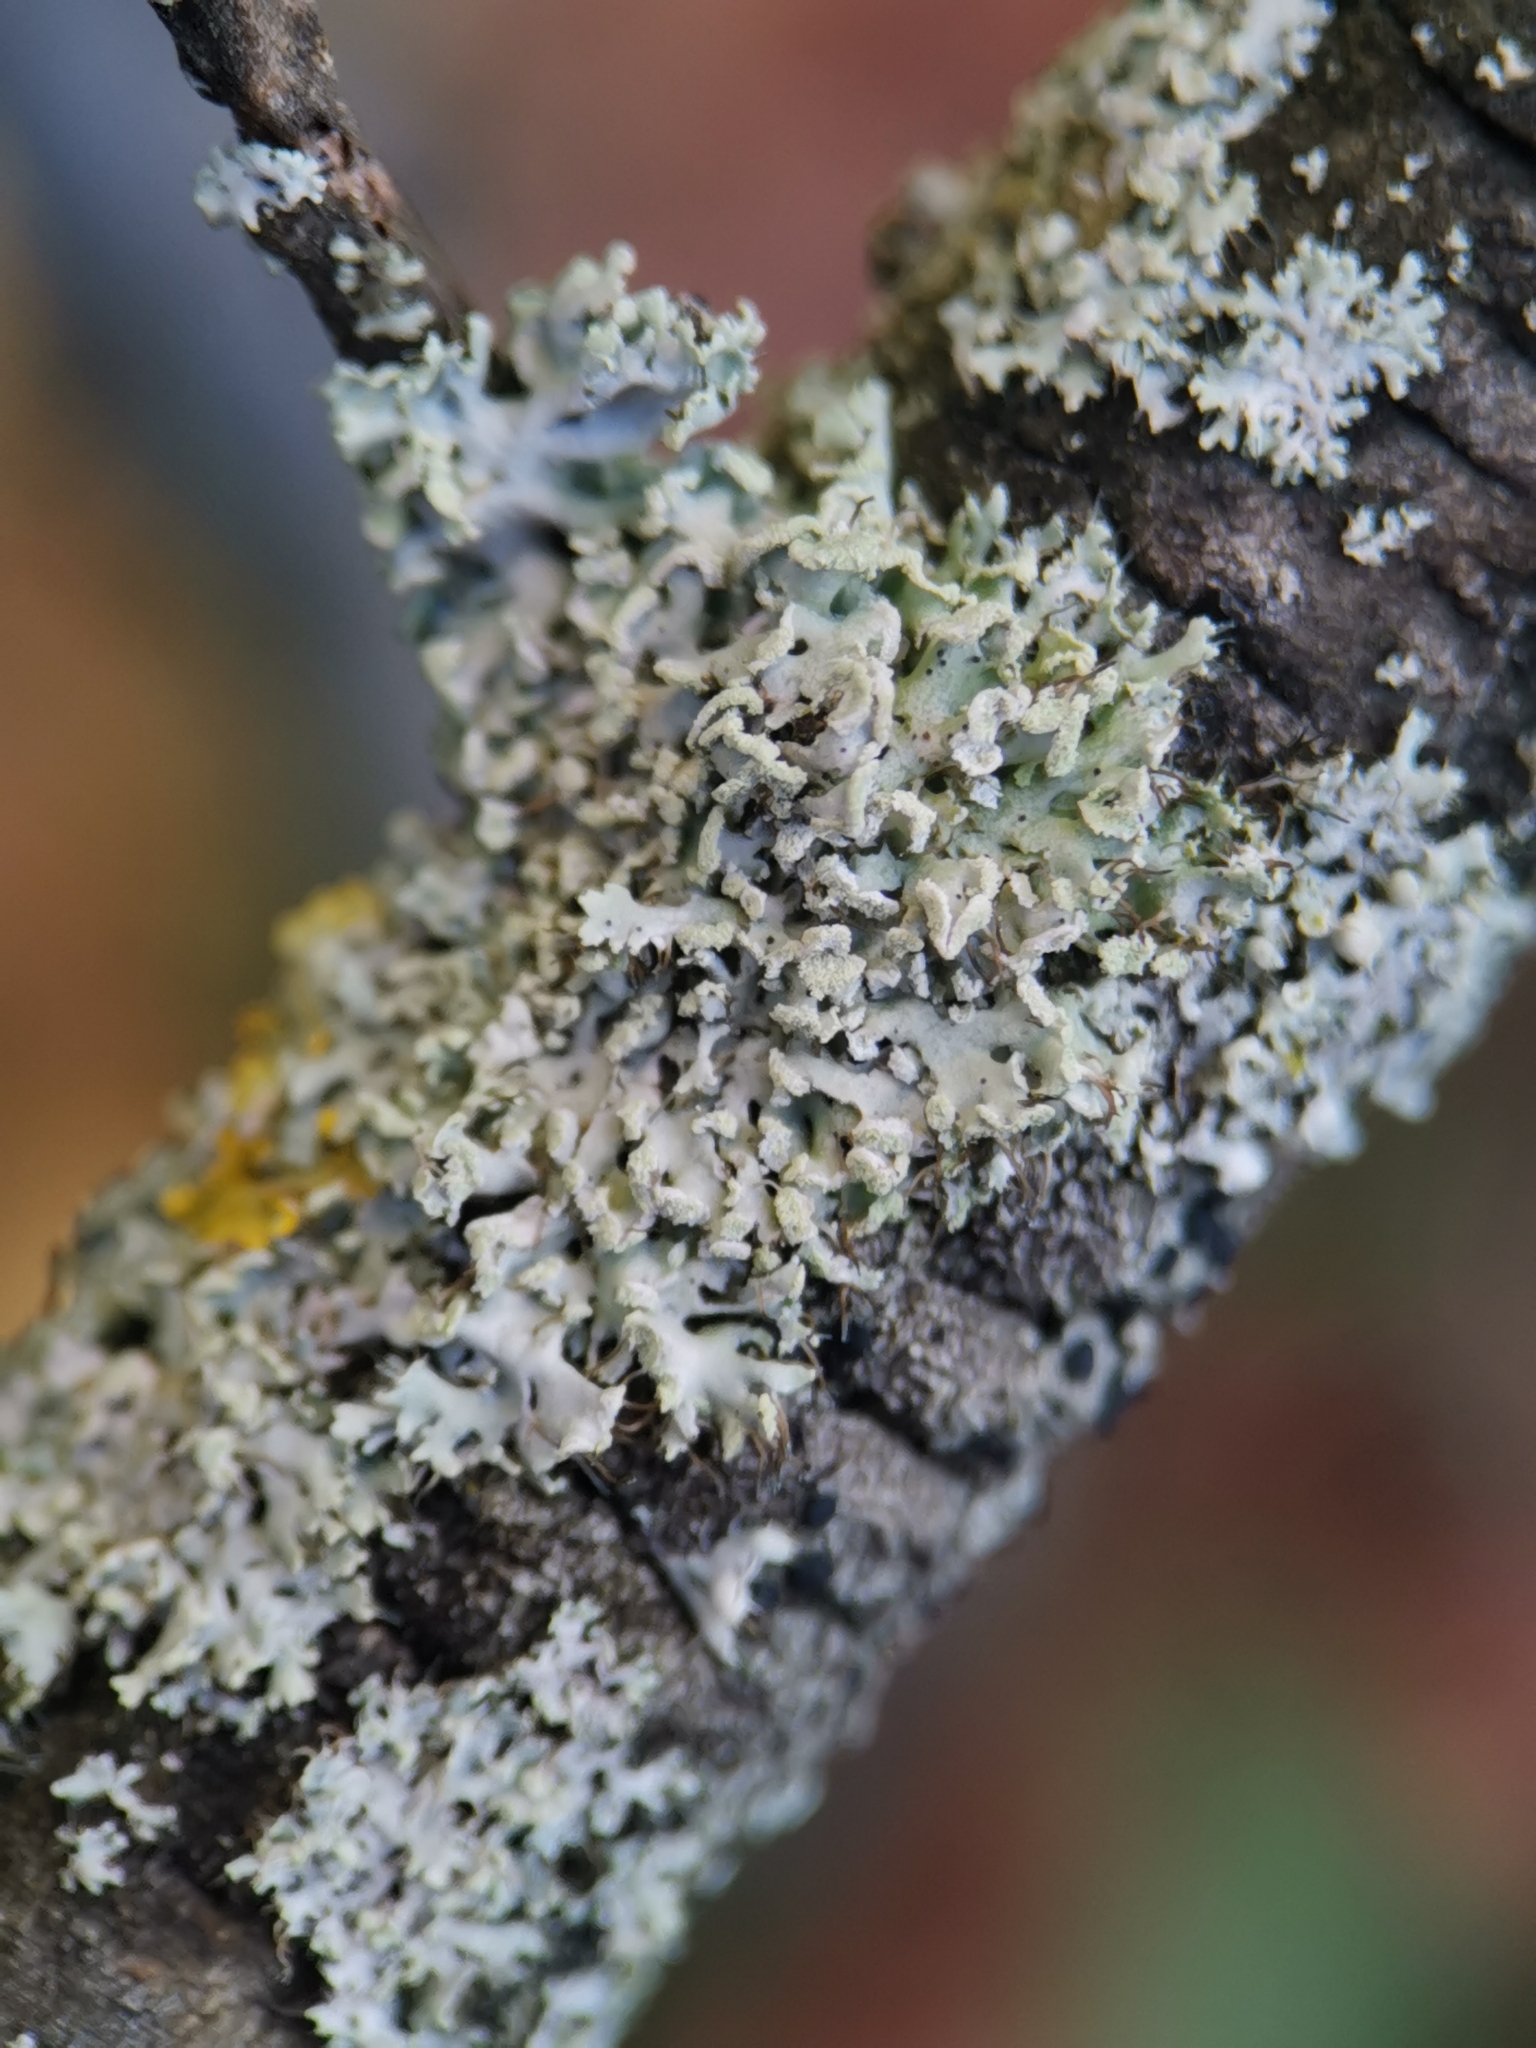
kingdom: Fungi
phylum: Ascomycota
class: Lecanoromycetes
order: Caliciales
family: Physciaceae
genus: Physcia
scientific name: Physcia tenella
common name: Fringed rosette lichen
